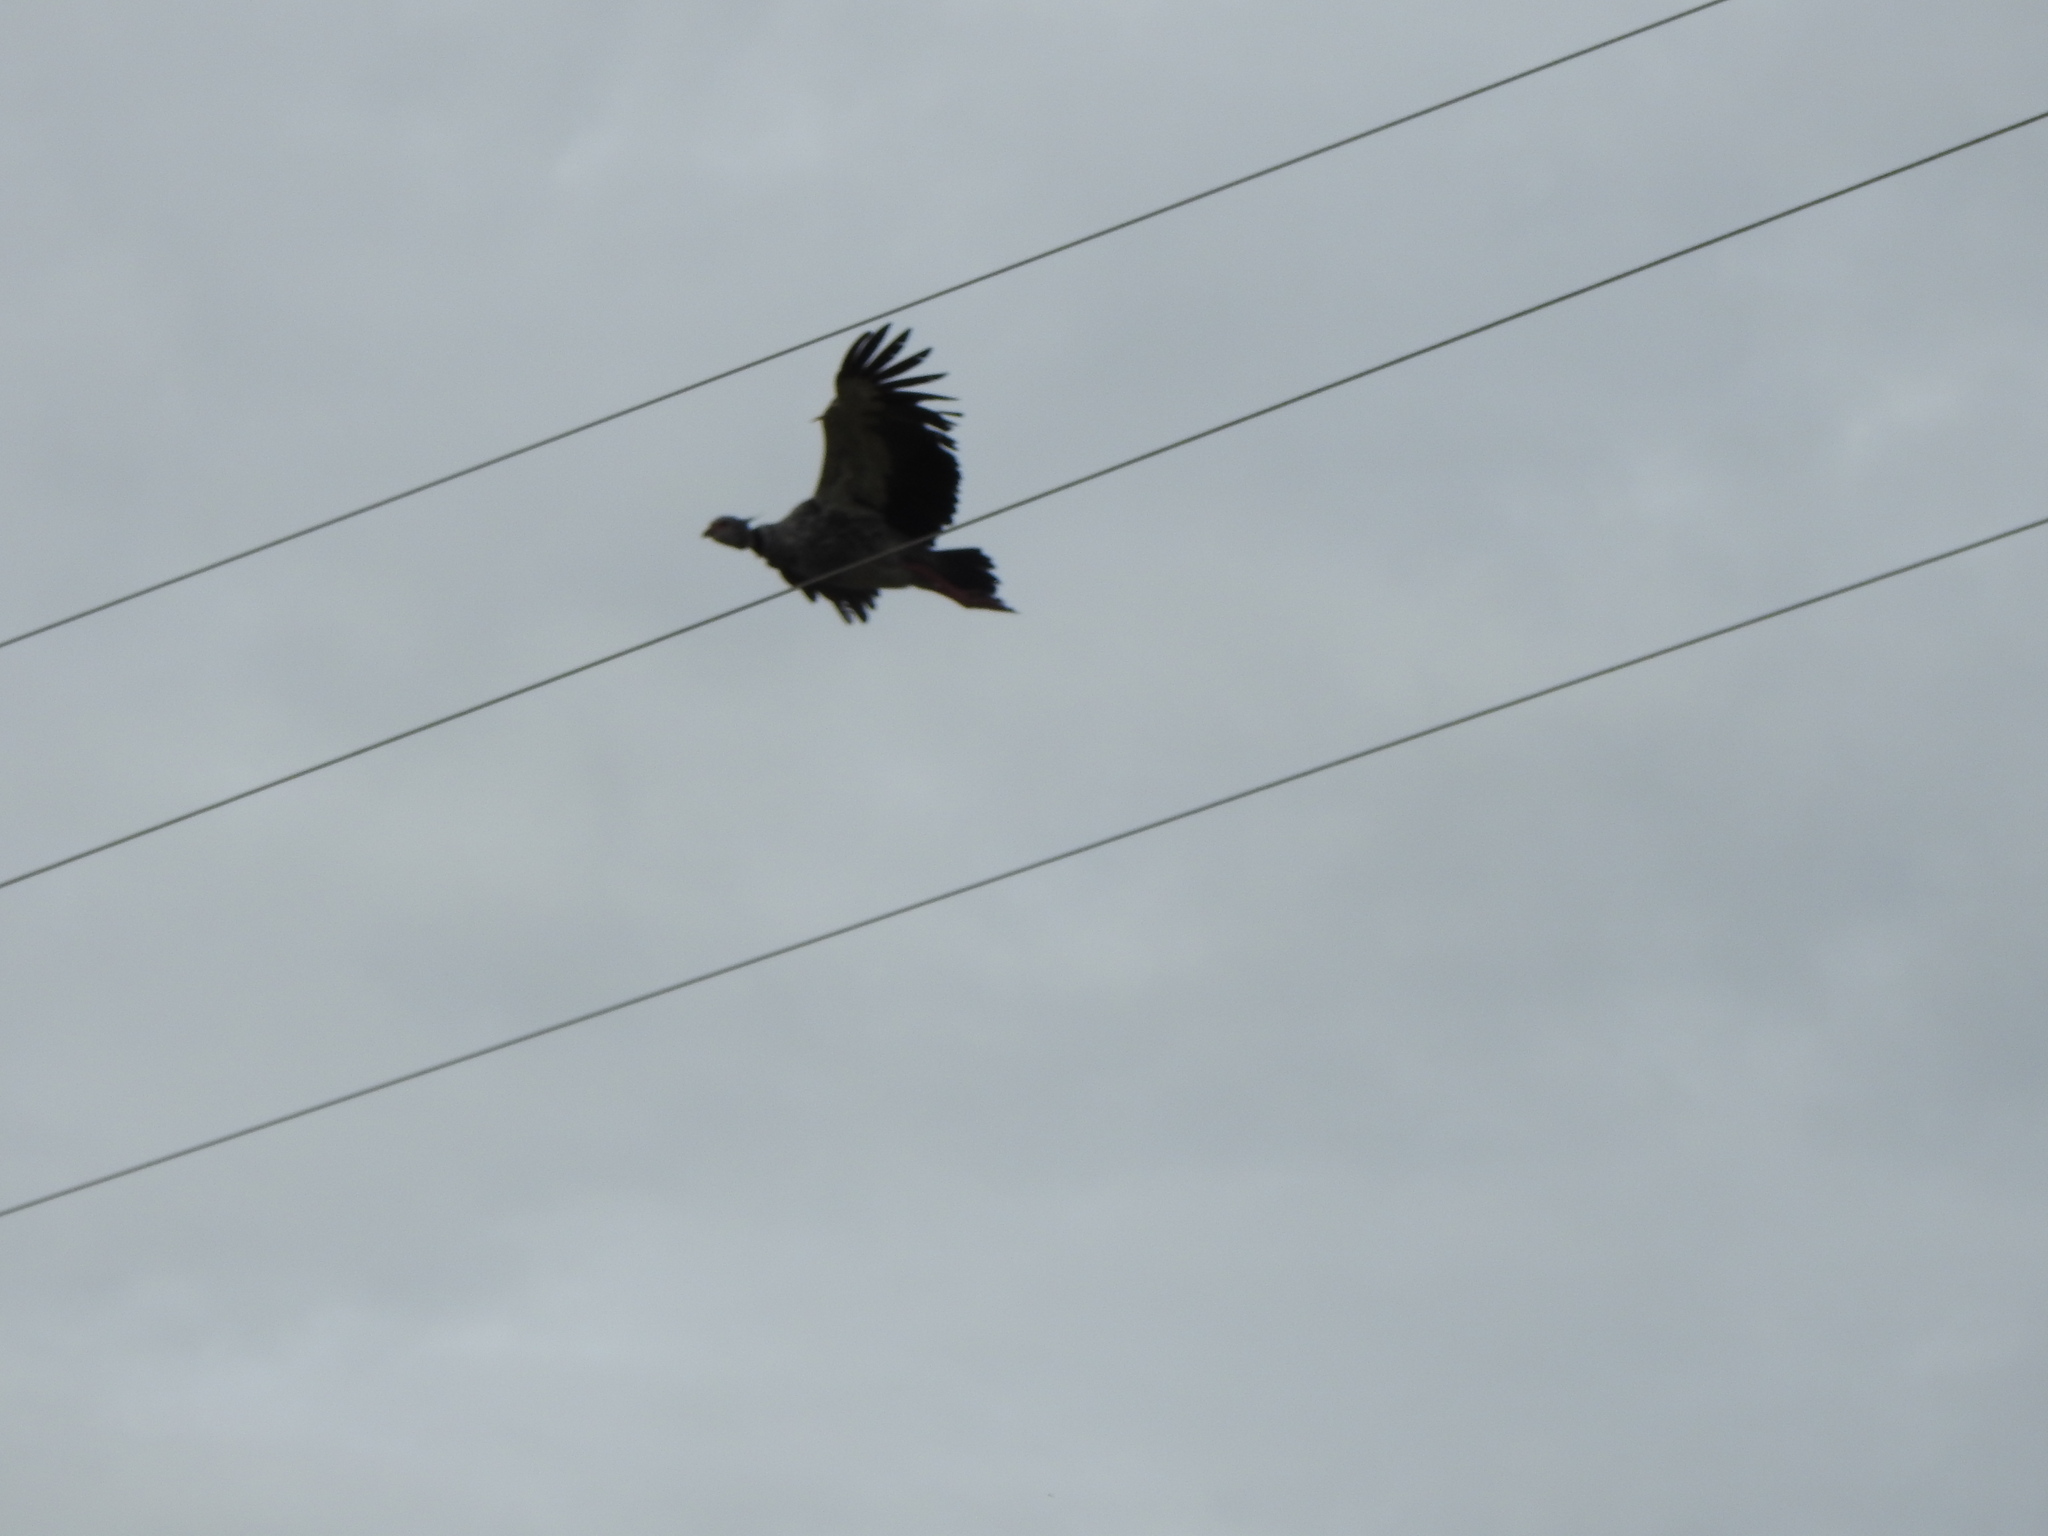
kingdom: Animalia
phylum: Chordata
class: Aves
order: Anseriformes
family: Anhimidae
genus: Chauna
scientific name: Chauna torquata
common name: Southern screamer
